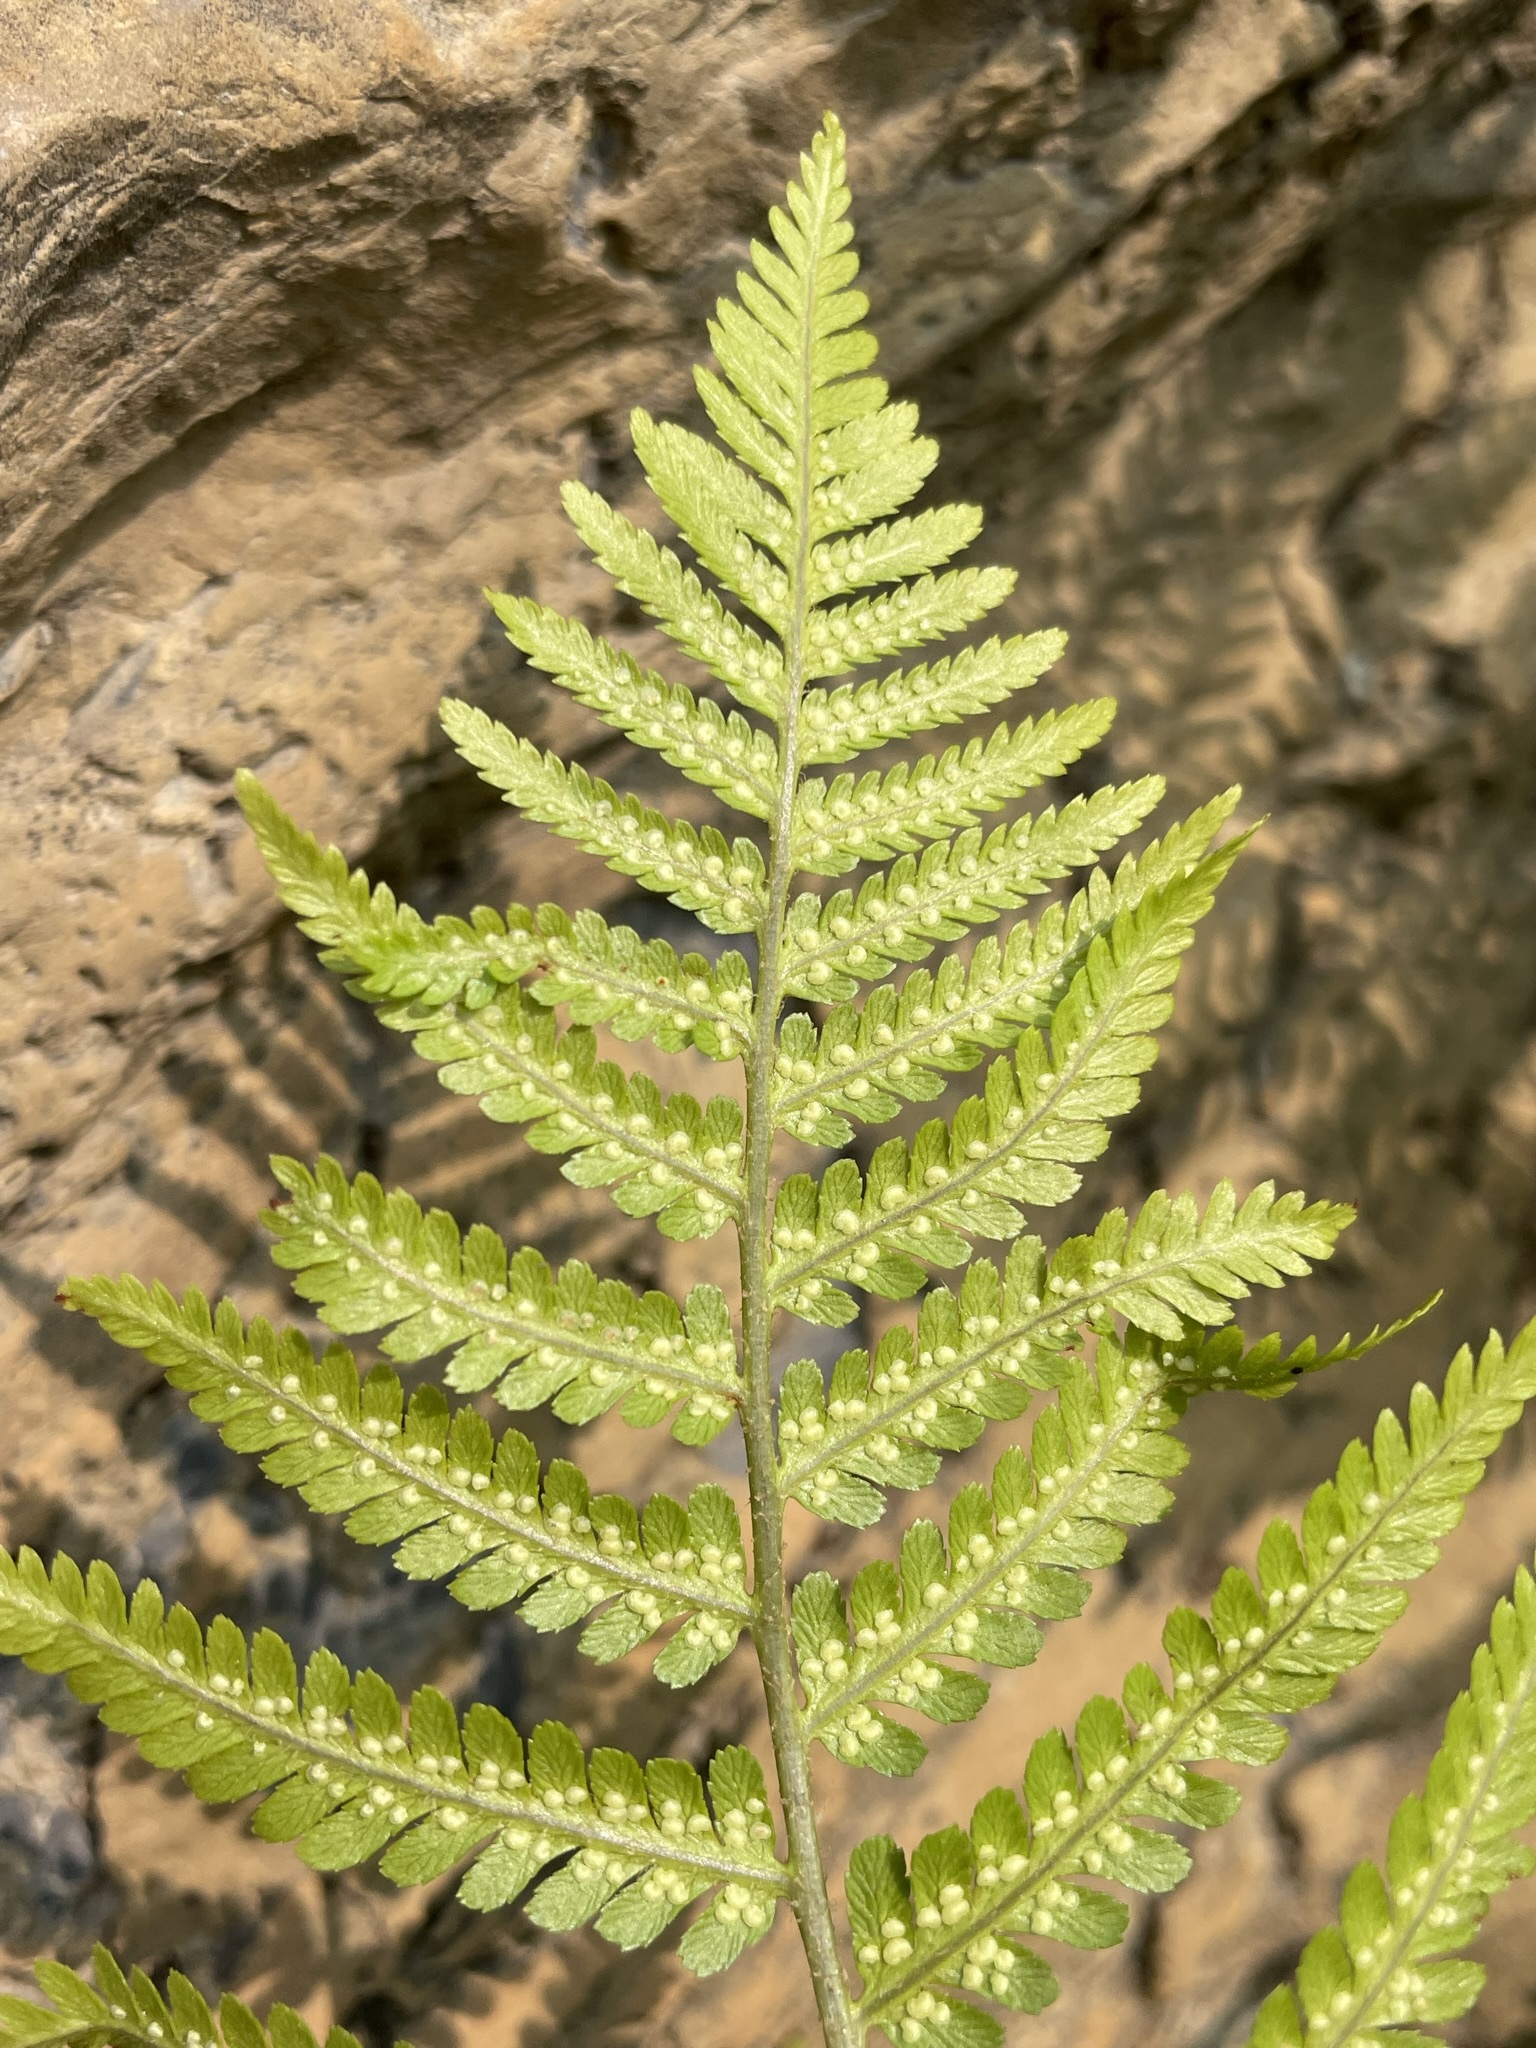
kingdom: Plantae
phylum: Tracheophyta
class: Polypodiopsida
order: Polypodiales
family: Dryopteridaceae
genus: Dryopteris
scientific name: Dryopteris filix-mas
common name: Male fern
